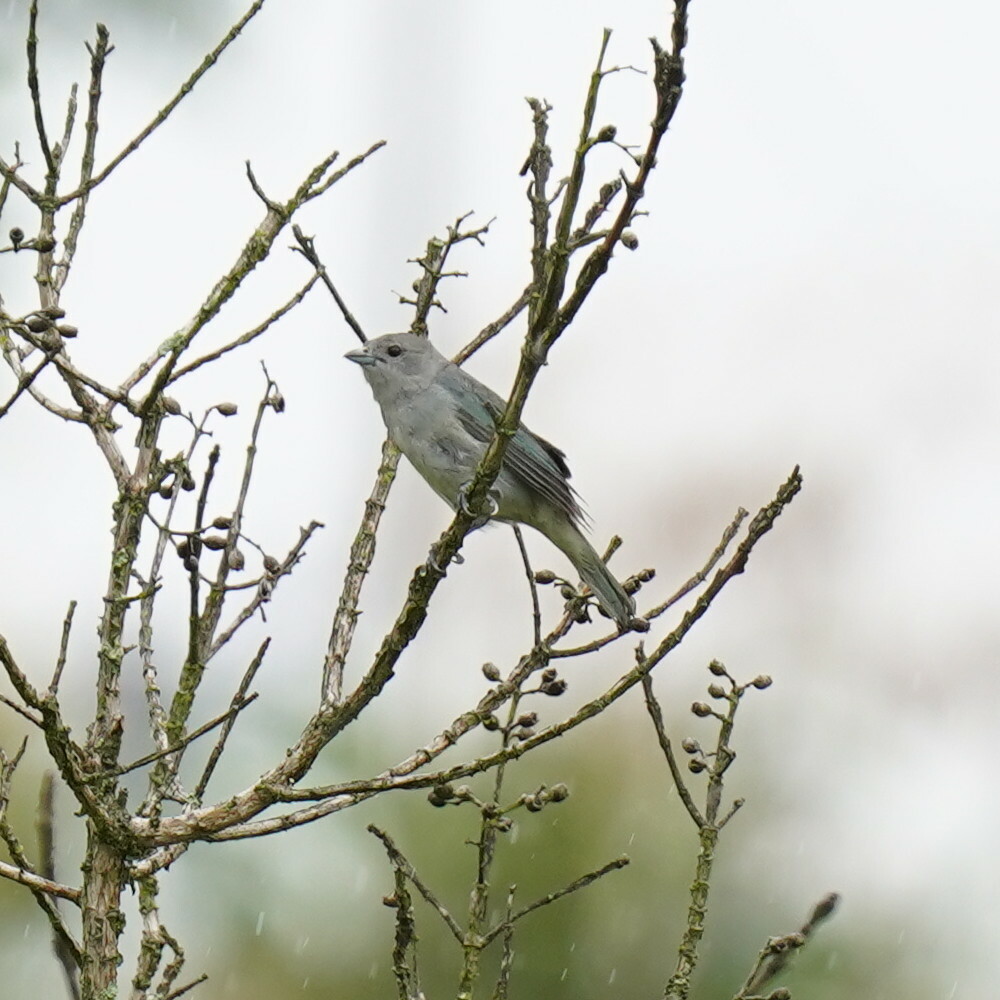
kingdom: Animalia
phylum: Chordata
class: Aves
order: Passeriformes
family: Thraupidae
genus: Thraupis
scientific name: Thraupis sayaca
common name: Sayaca tanager
